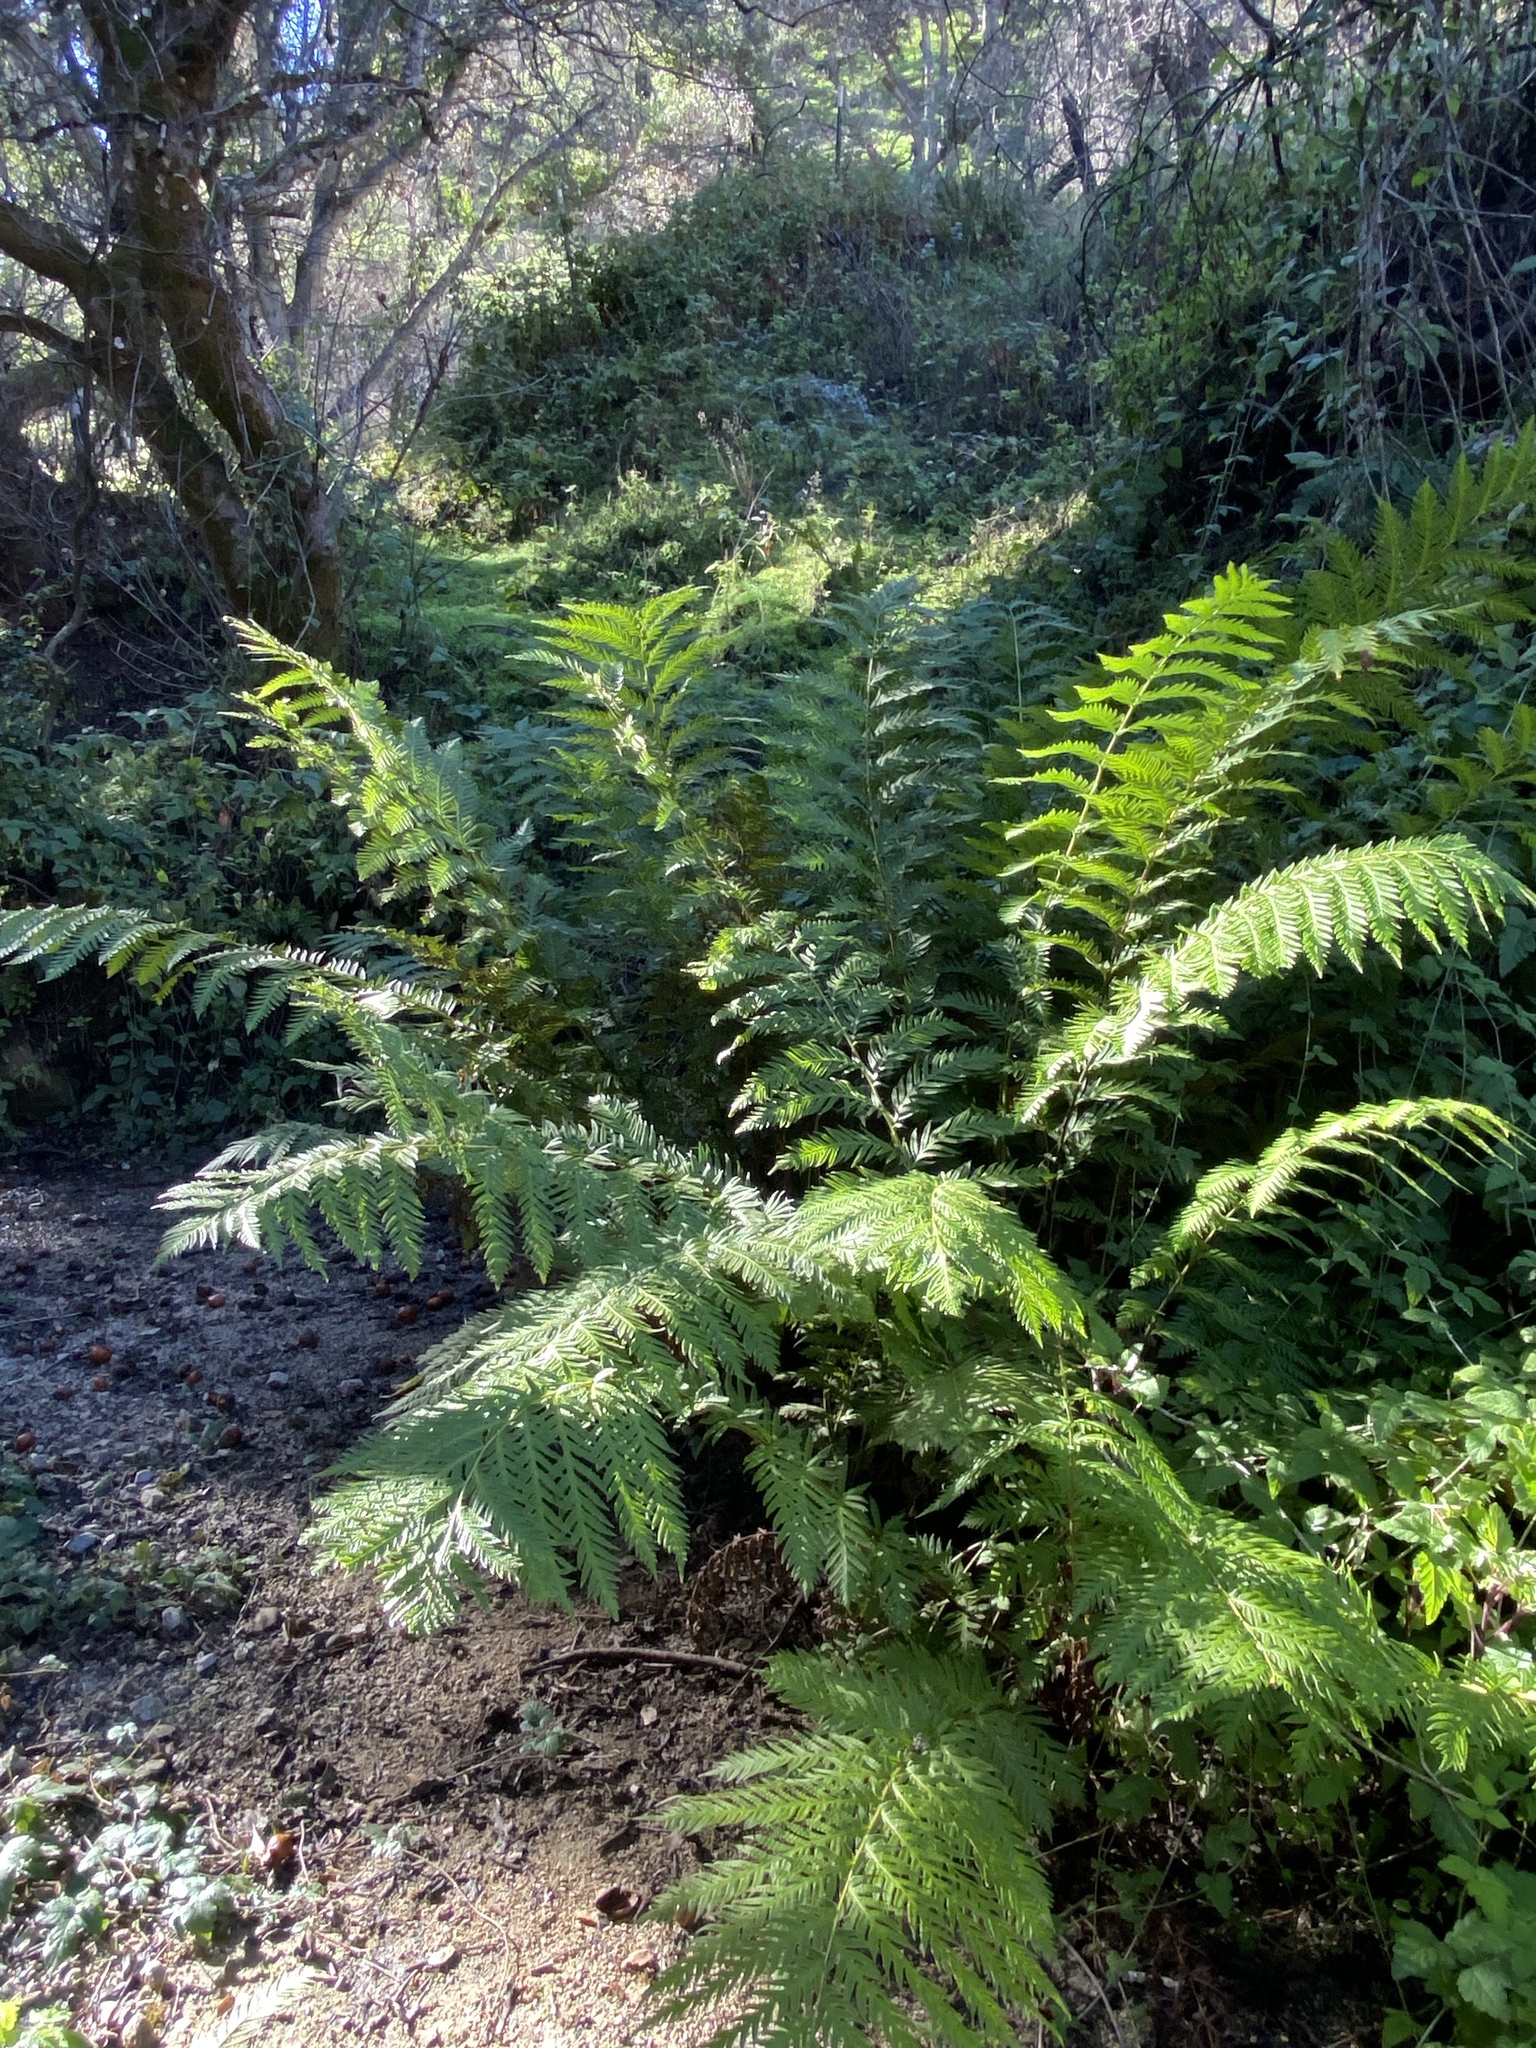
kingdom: Plantae
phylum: Tracheophyta
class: Polypodiopsida
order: Polypodiales
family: Blechnaceae
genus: Woodwardia
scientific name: Woodwardia fimbriata
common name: Giant chain fern
